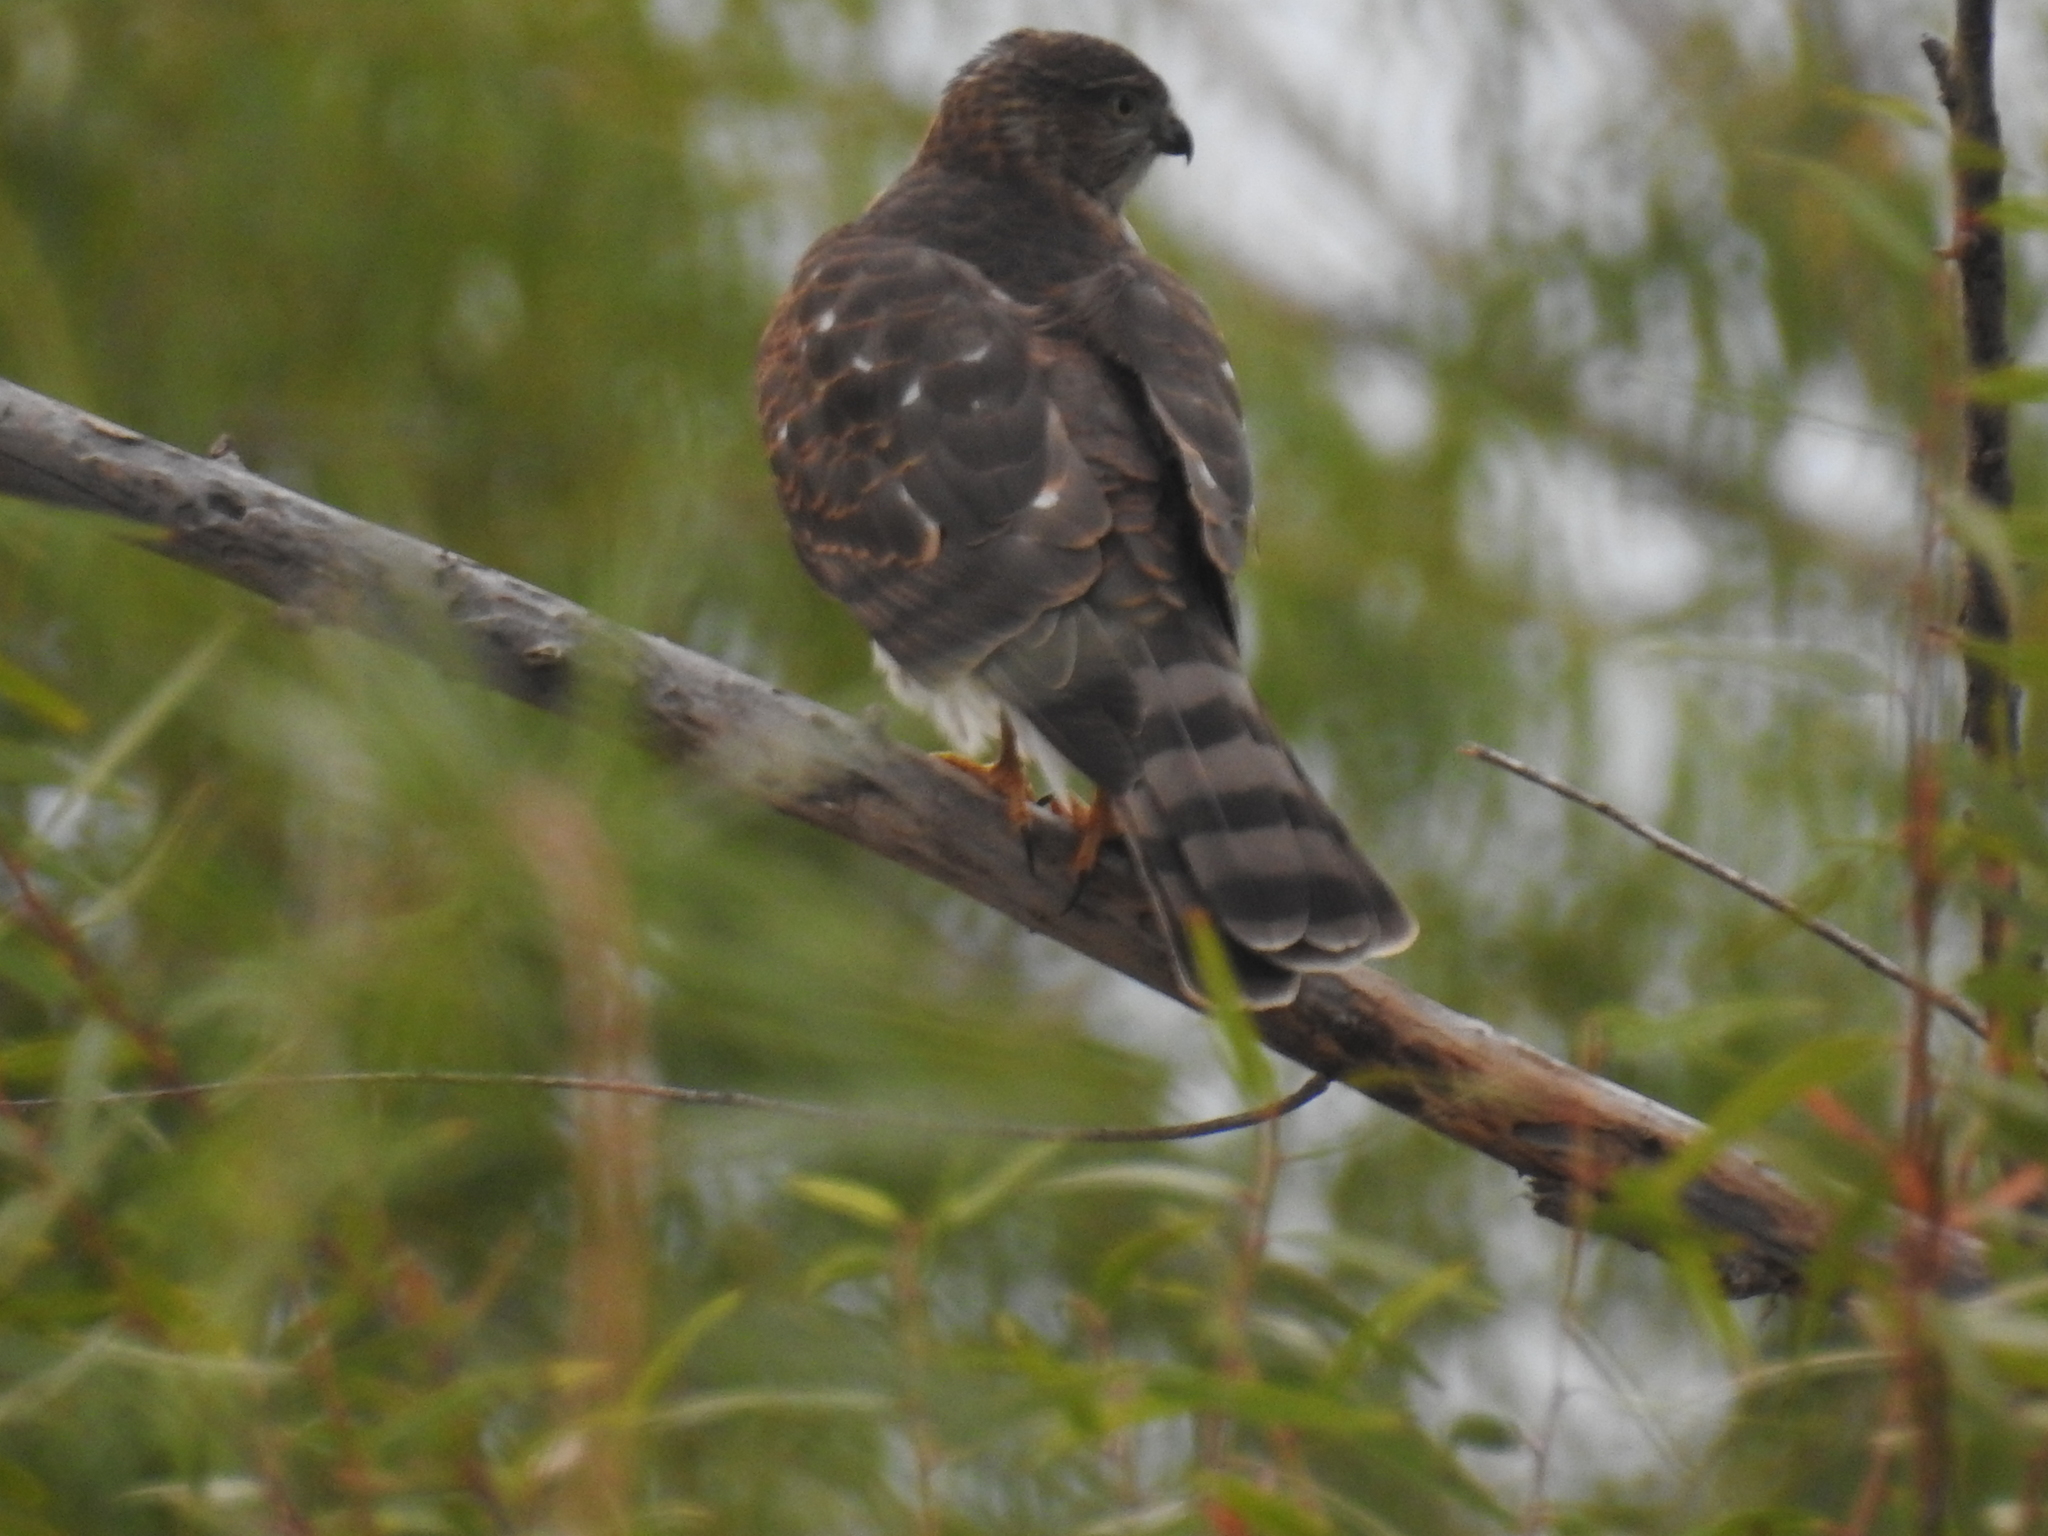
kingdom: Animalia
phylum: Chordata
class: Aves
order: Accipitriformes
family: Accipitridae
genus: Accipiter
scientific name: Accipiter striatus
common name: Sharp-shinned hawk
